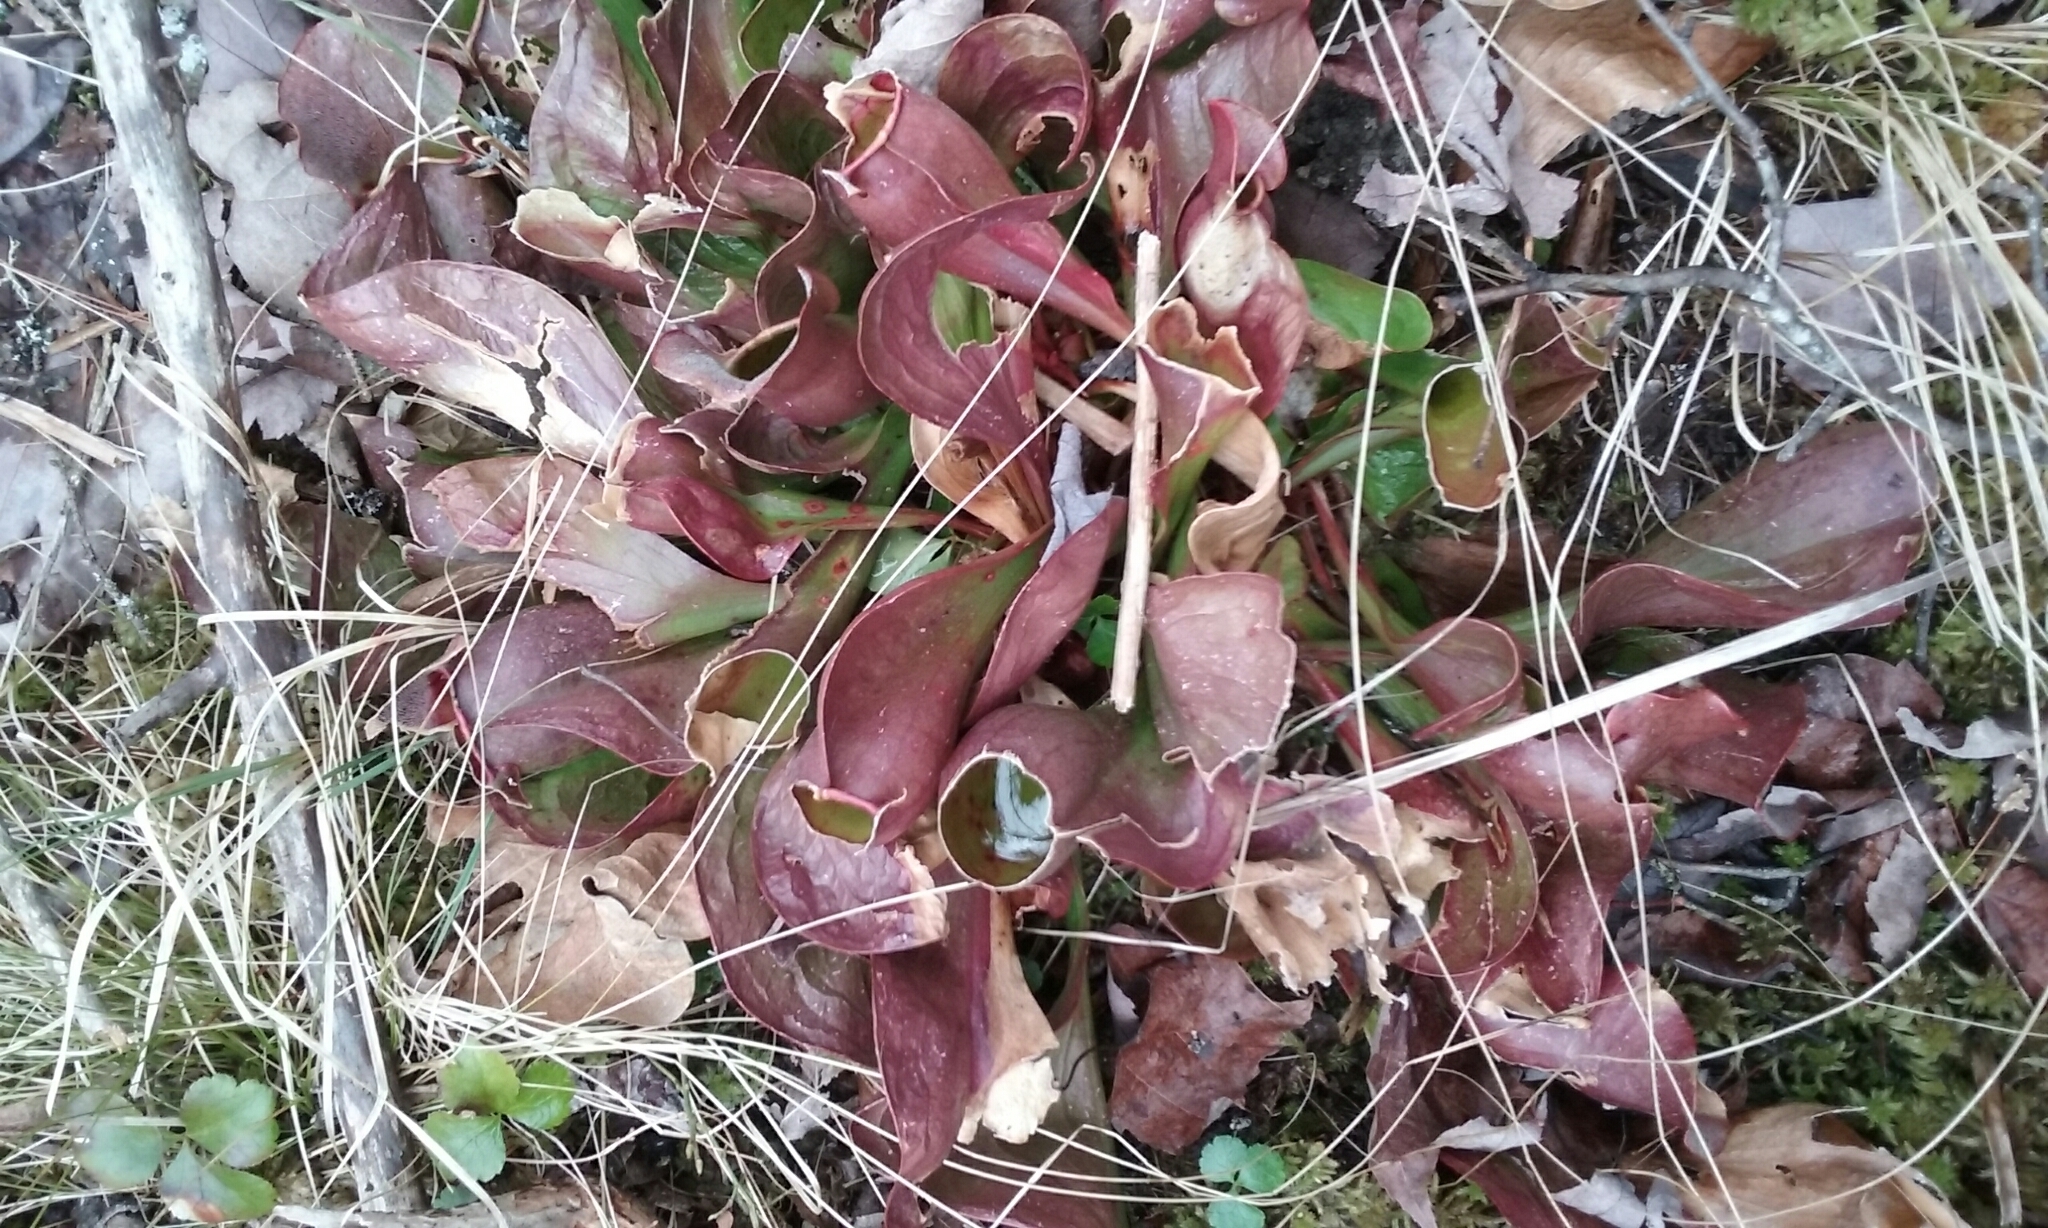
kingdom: Plantae
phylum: Tracheophyta
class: Magnoliopsida
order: Ericales
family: Sarraceniaceae
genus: Sarracenia
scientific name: Sarracenia purpurea
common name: Pitcherplant
